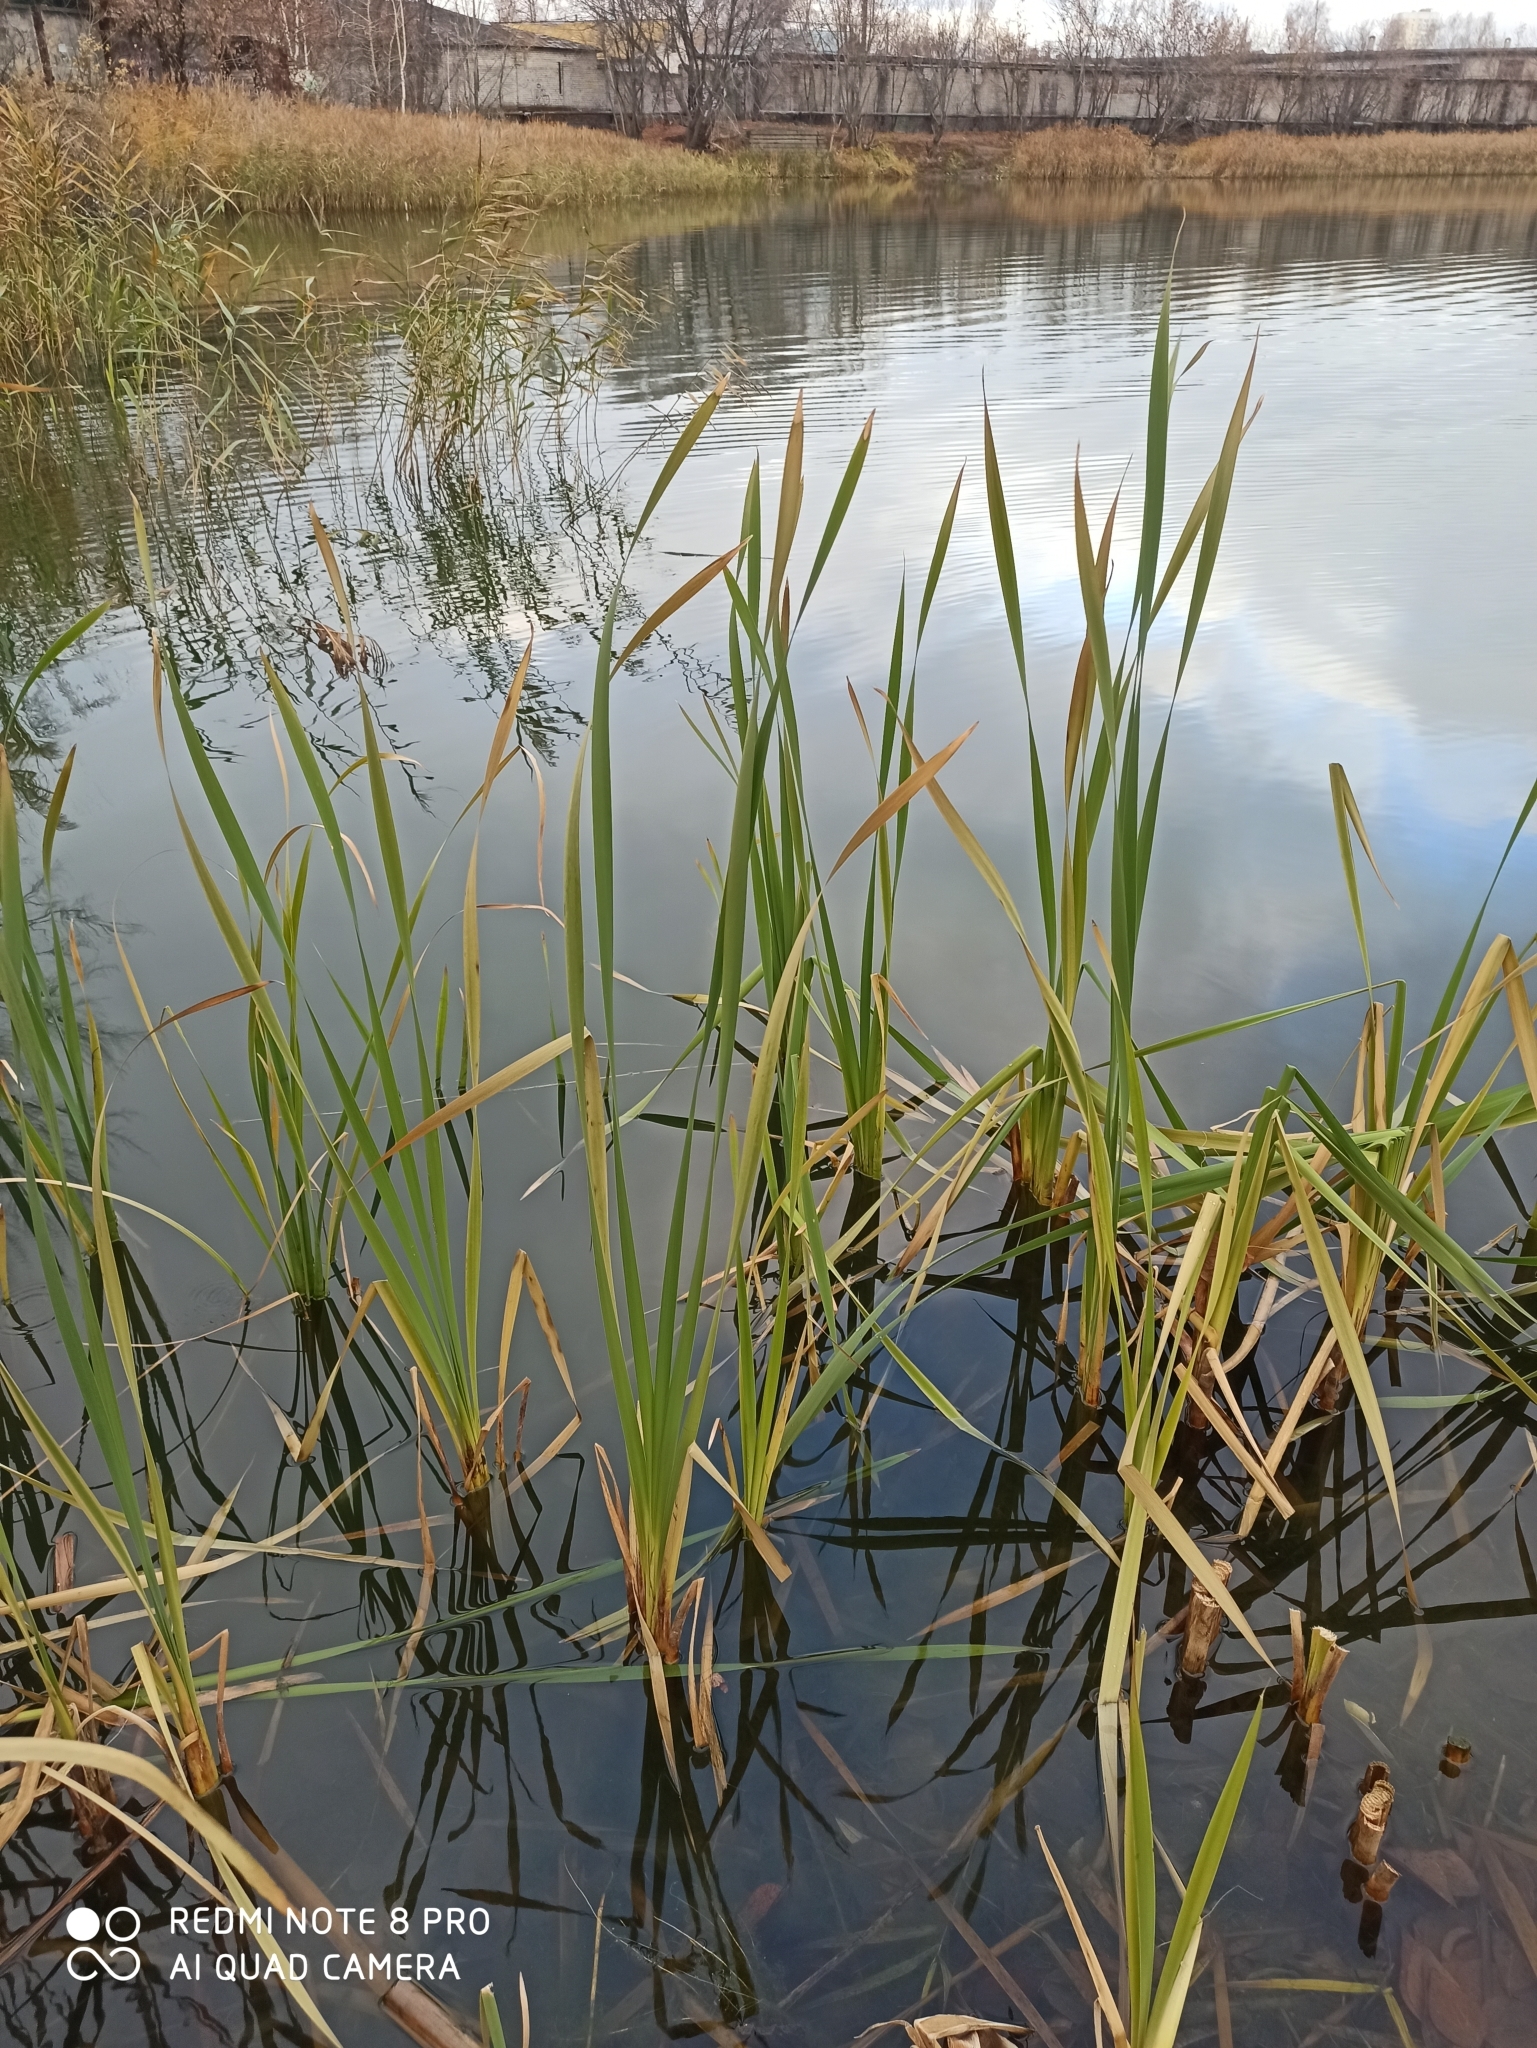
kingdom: Plantae
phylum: Tracheophyta
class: Liliopsida
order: Poales
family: Typhaceae
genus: Typha
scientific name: Typha latifolia
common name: Broadleaf cattail
